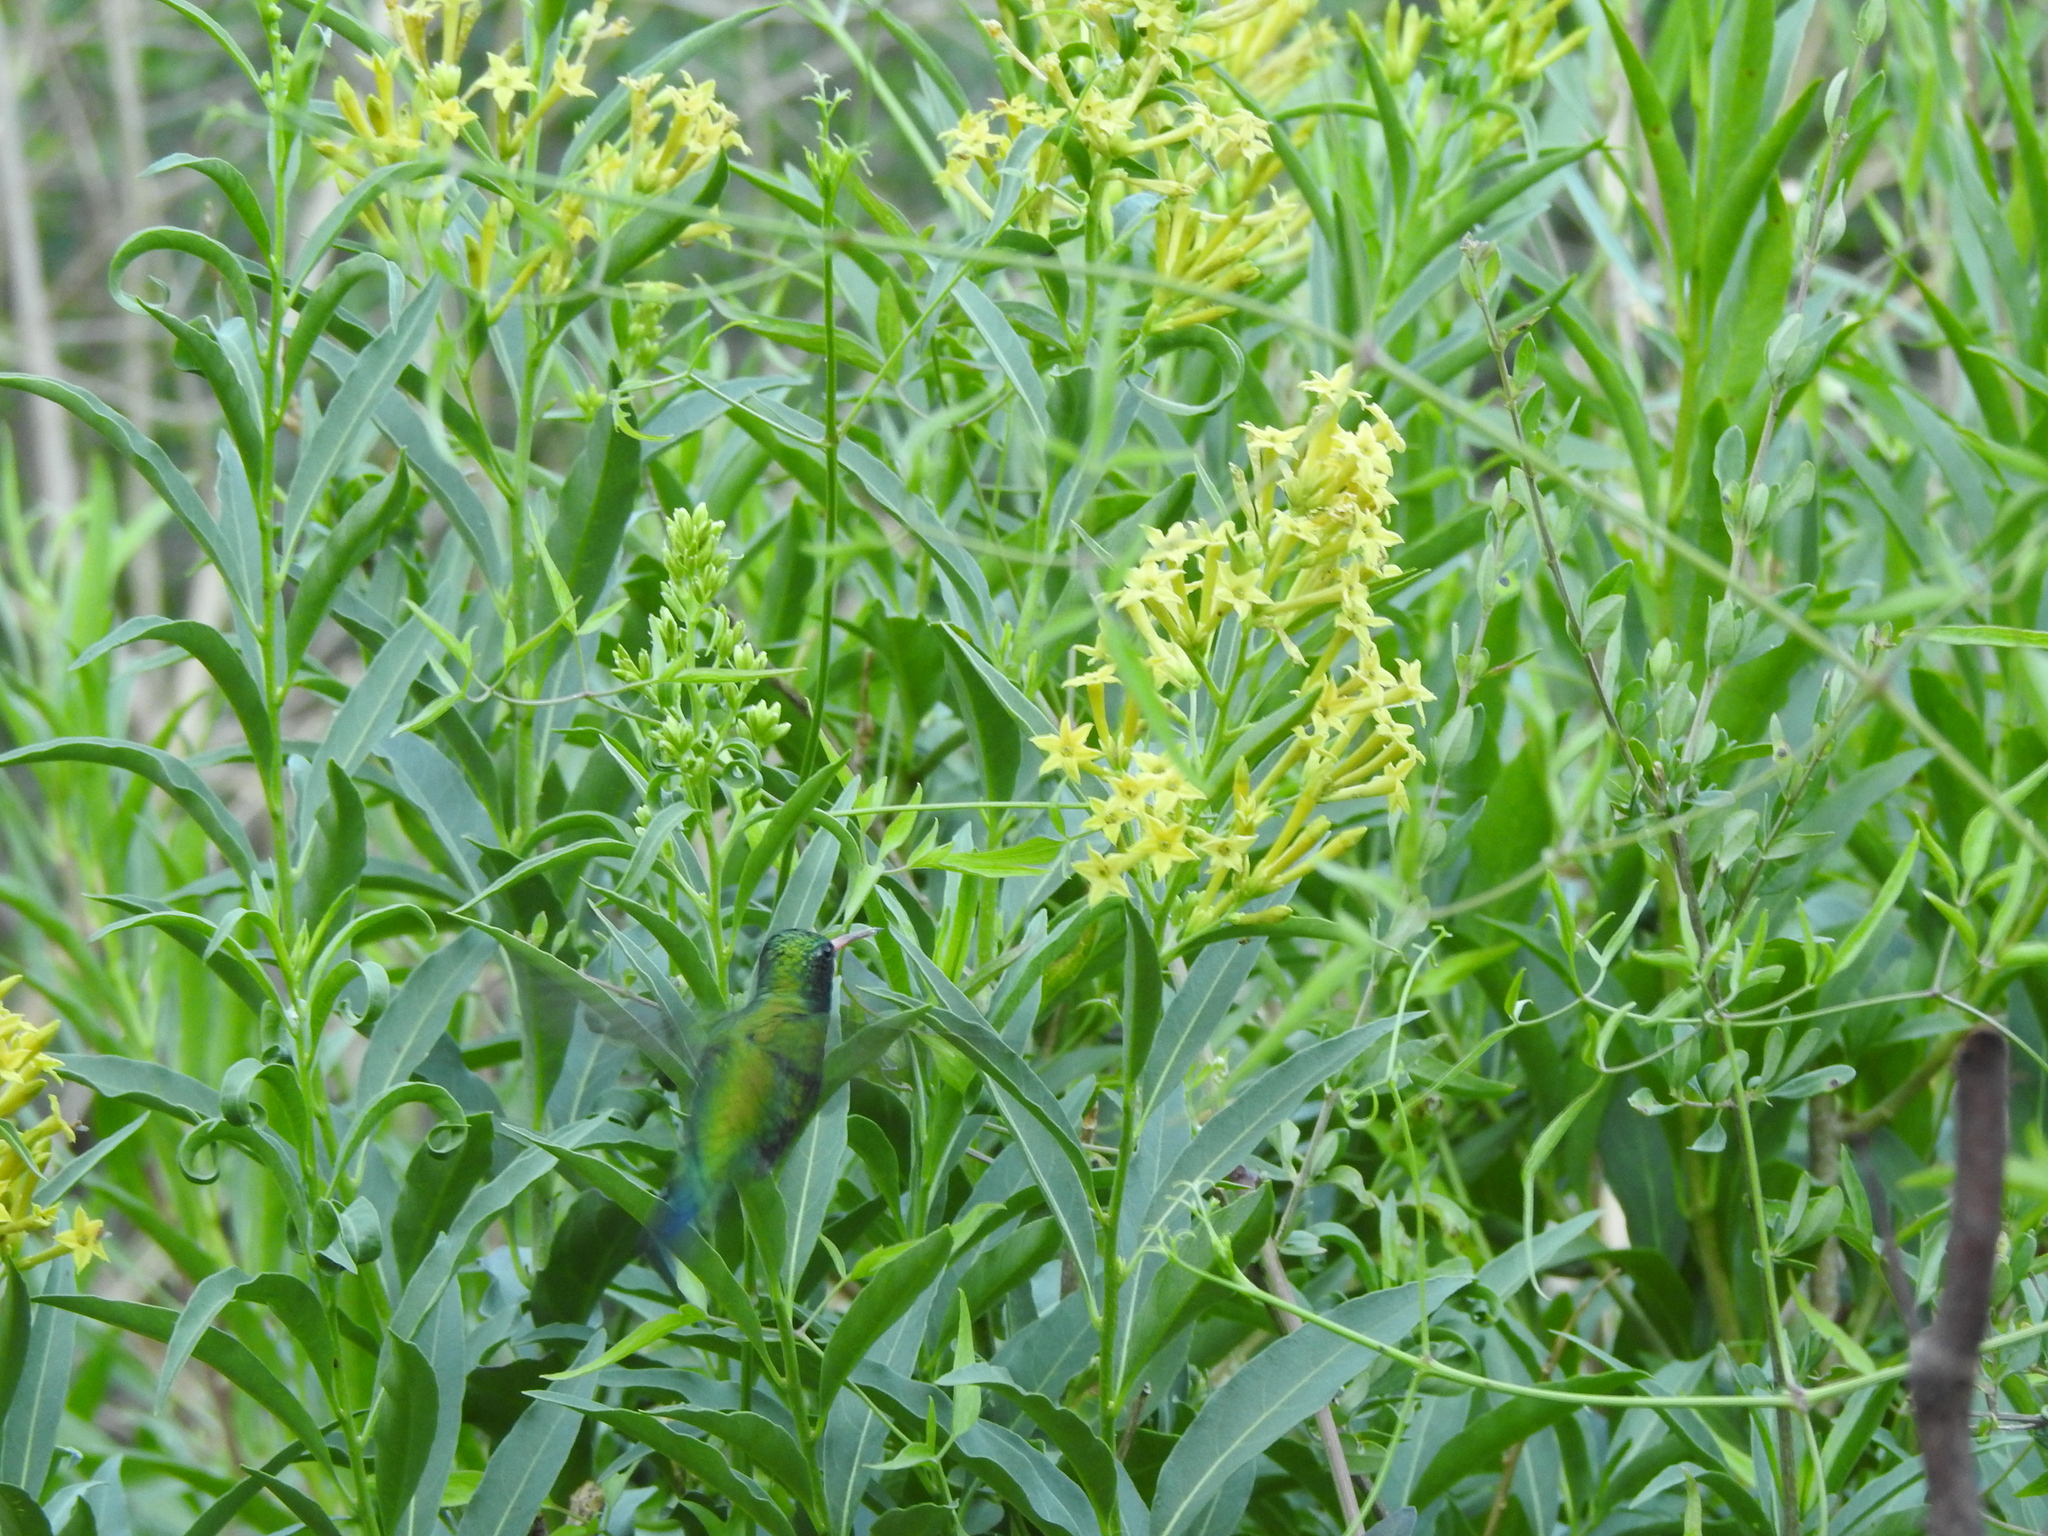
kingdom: Plantae
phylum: Tracheophyta
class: Magnoliopsida
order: Solanales
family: Solanaceae
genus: Cestrum
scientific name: Cestrum parqui
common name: Chilean cestrum
